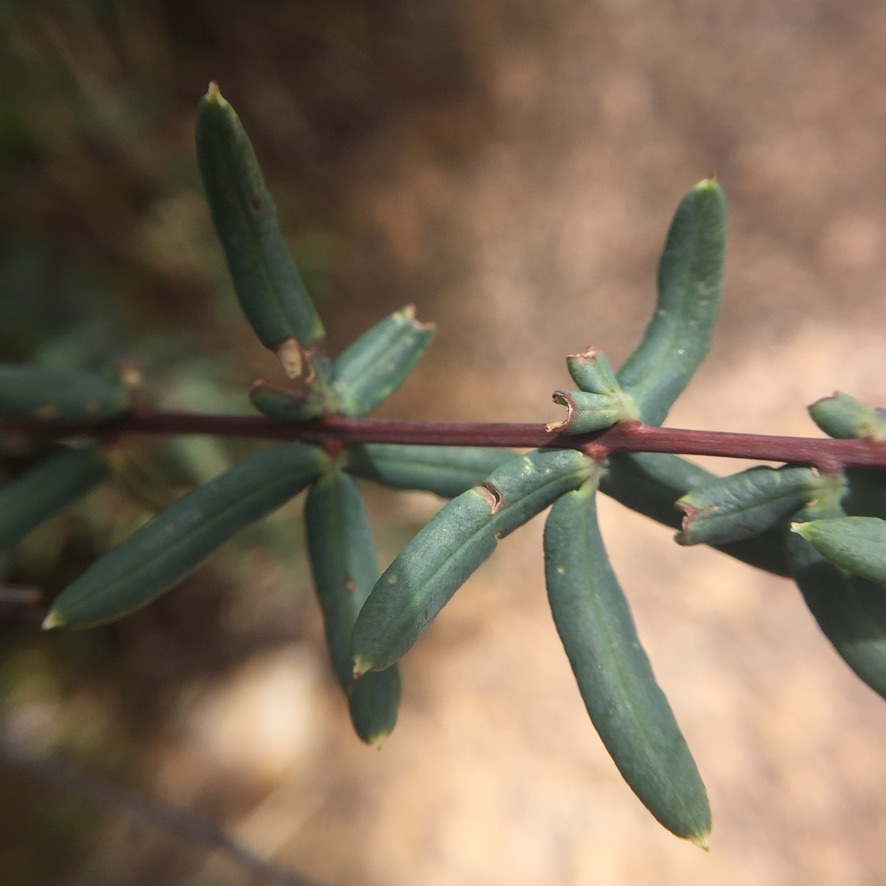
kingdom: Plantae
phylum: Tracheophyta
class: Polypodiopsida
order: Polypodiales
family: Pteridaceae
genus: Pellaea
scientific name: Pellaea ternifolia
